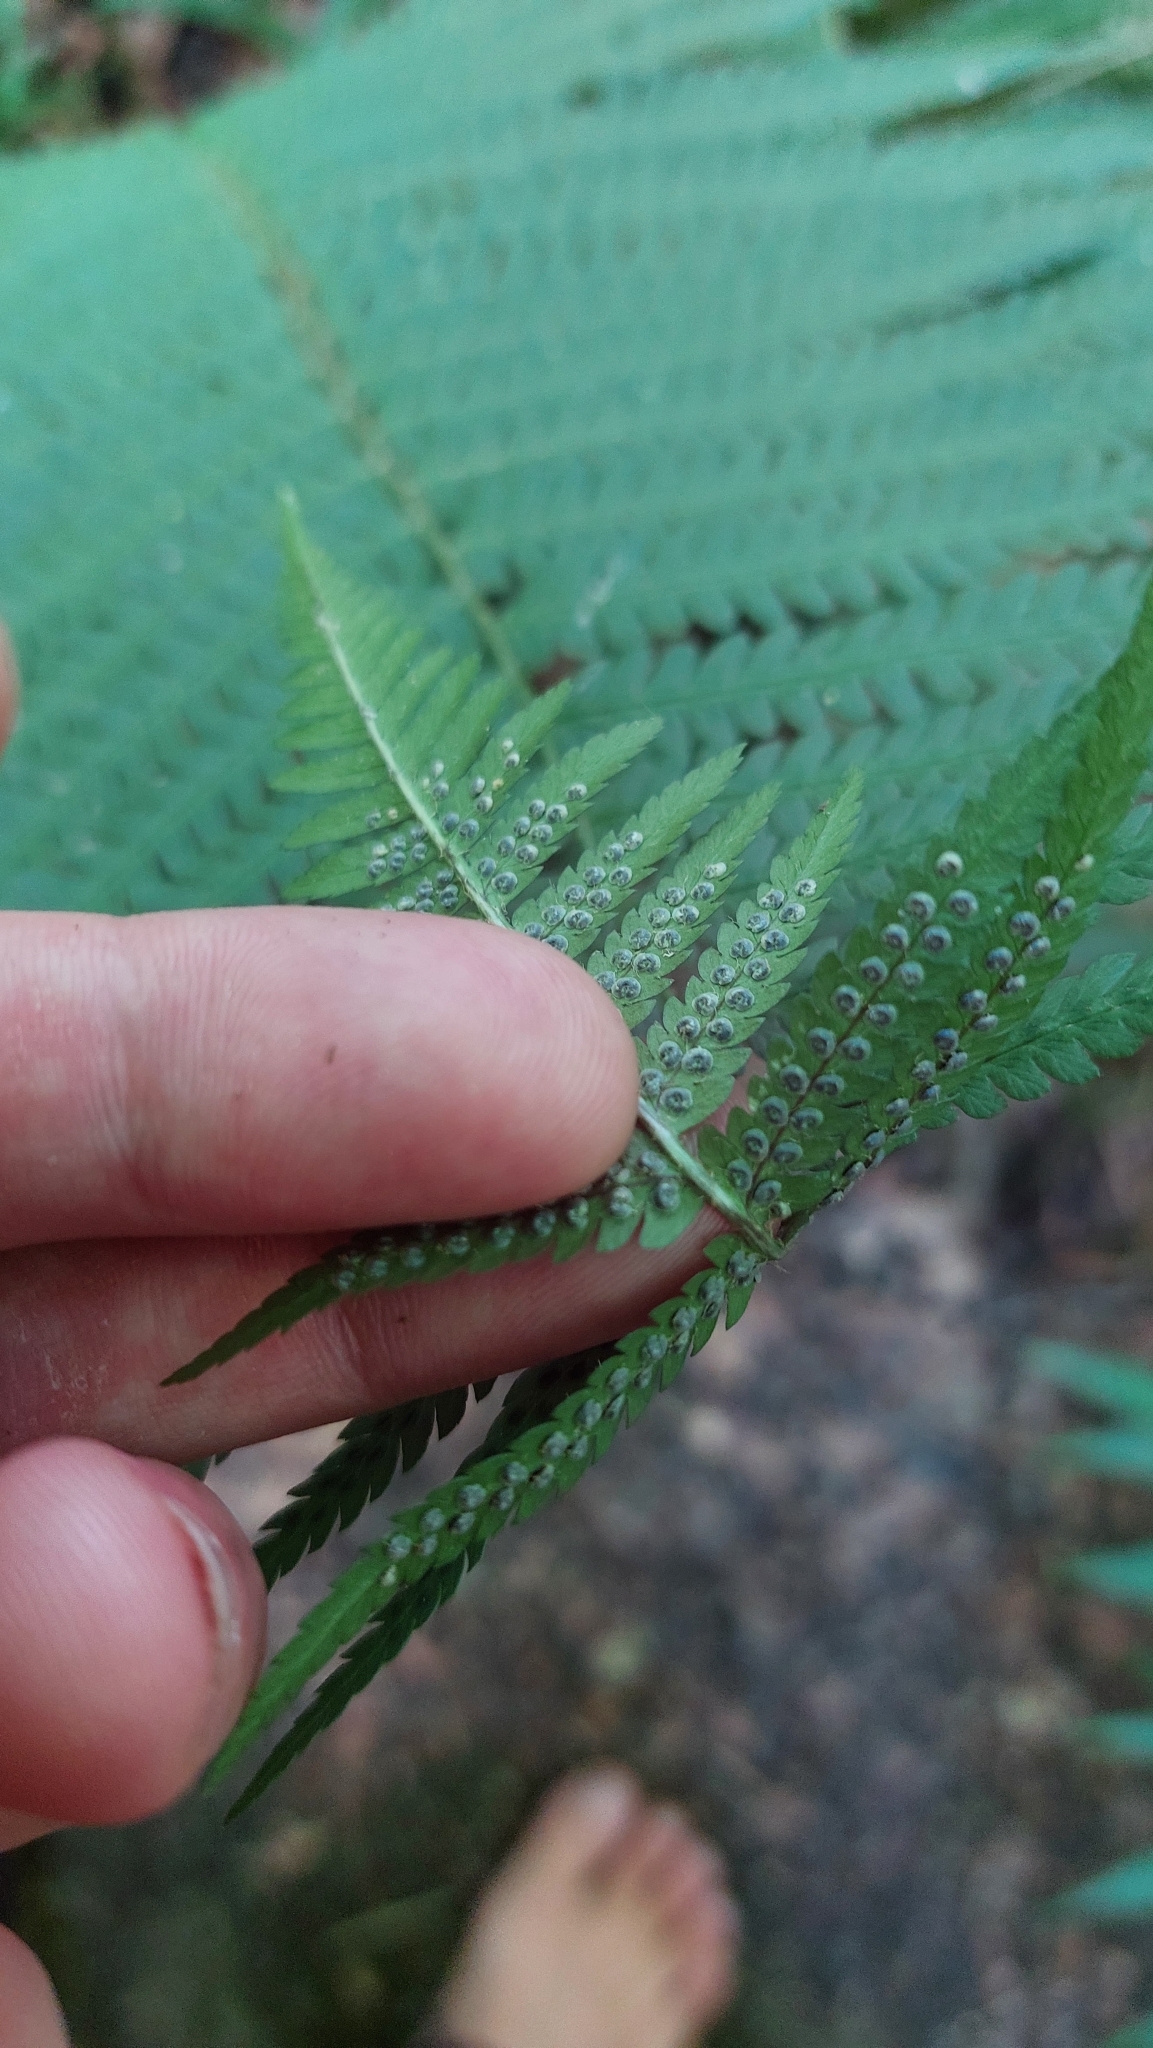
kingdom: Plantae
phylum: Tracheophyta
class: Polypodiopsida
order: Polypodiales
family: Dryopteridaceae
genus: Dryopteris
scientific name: Dryopteris filix-mas
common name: Male fern
